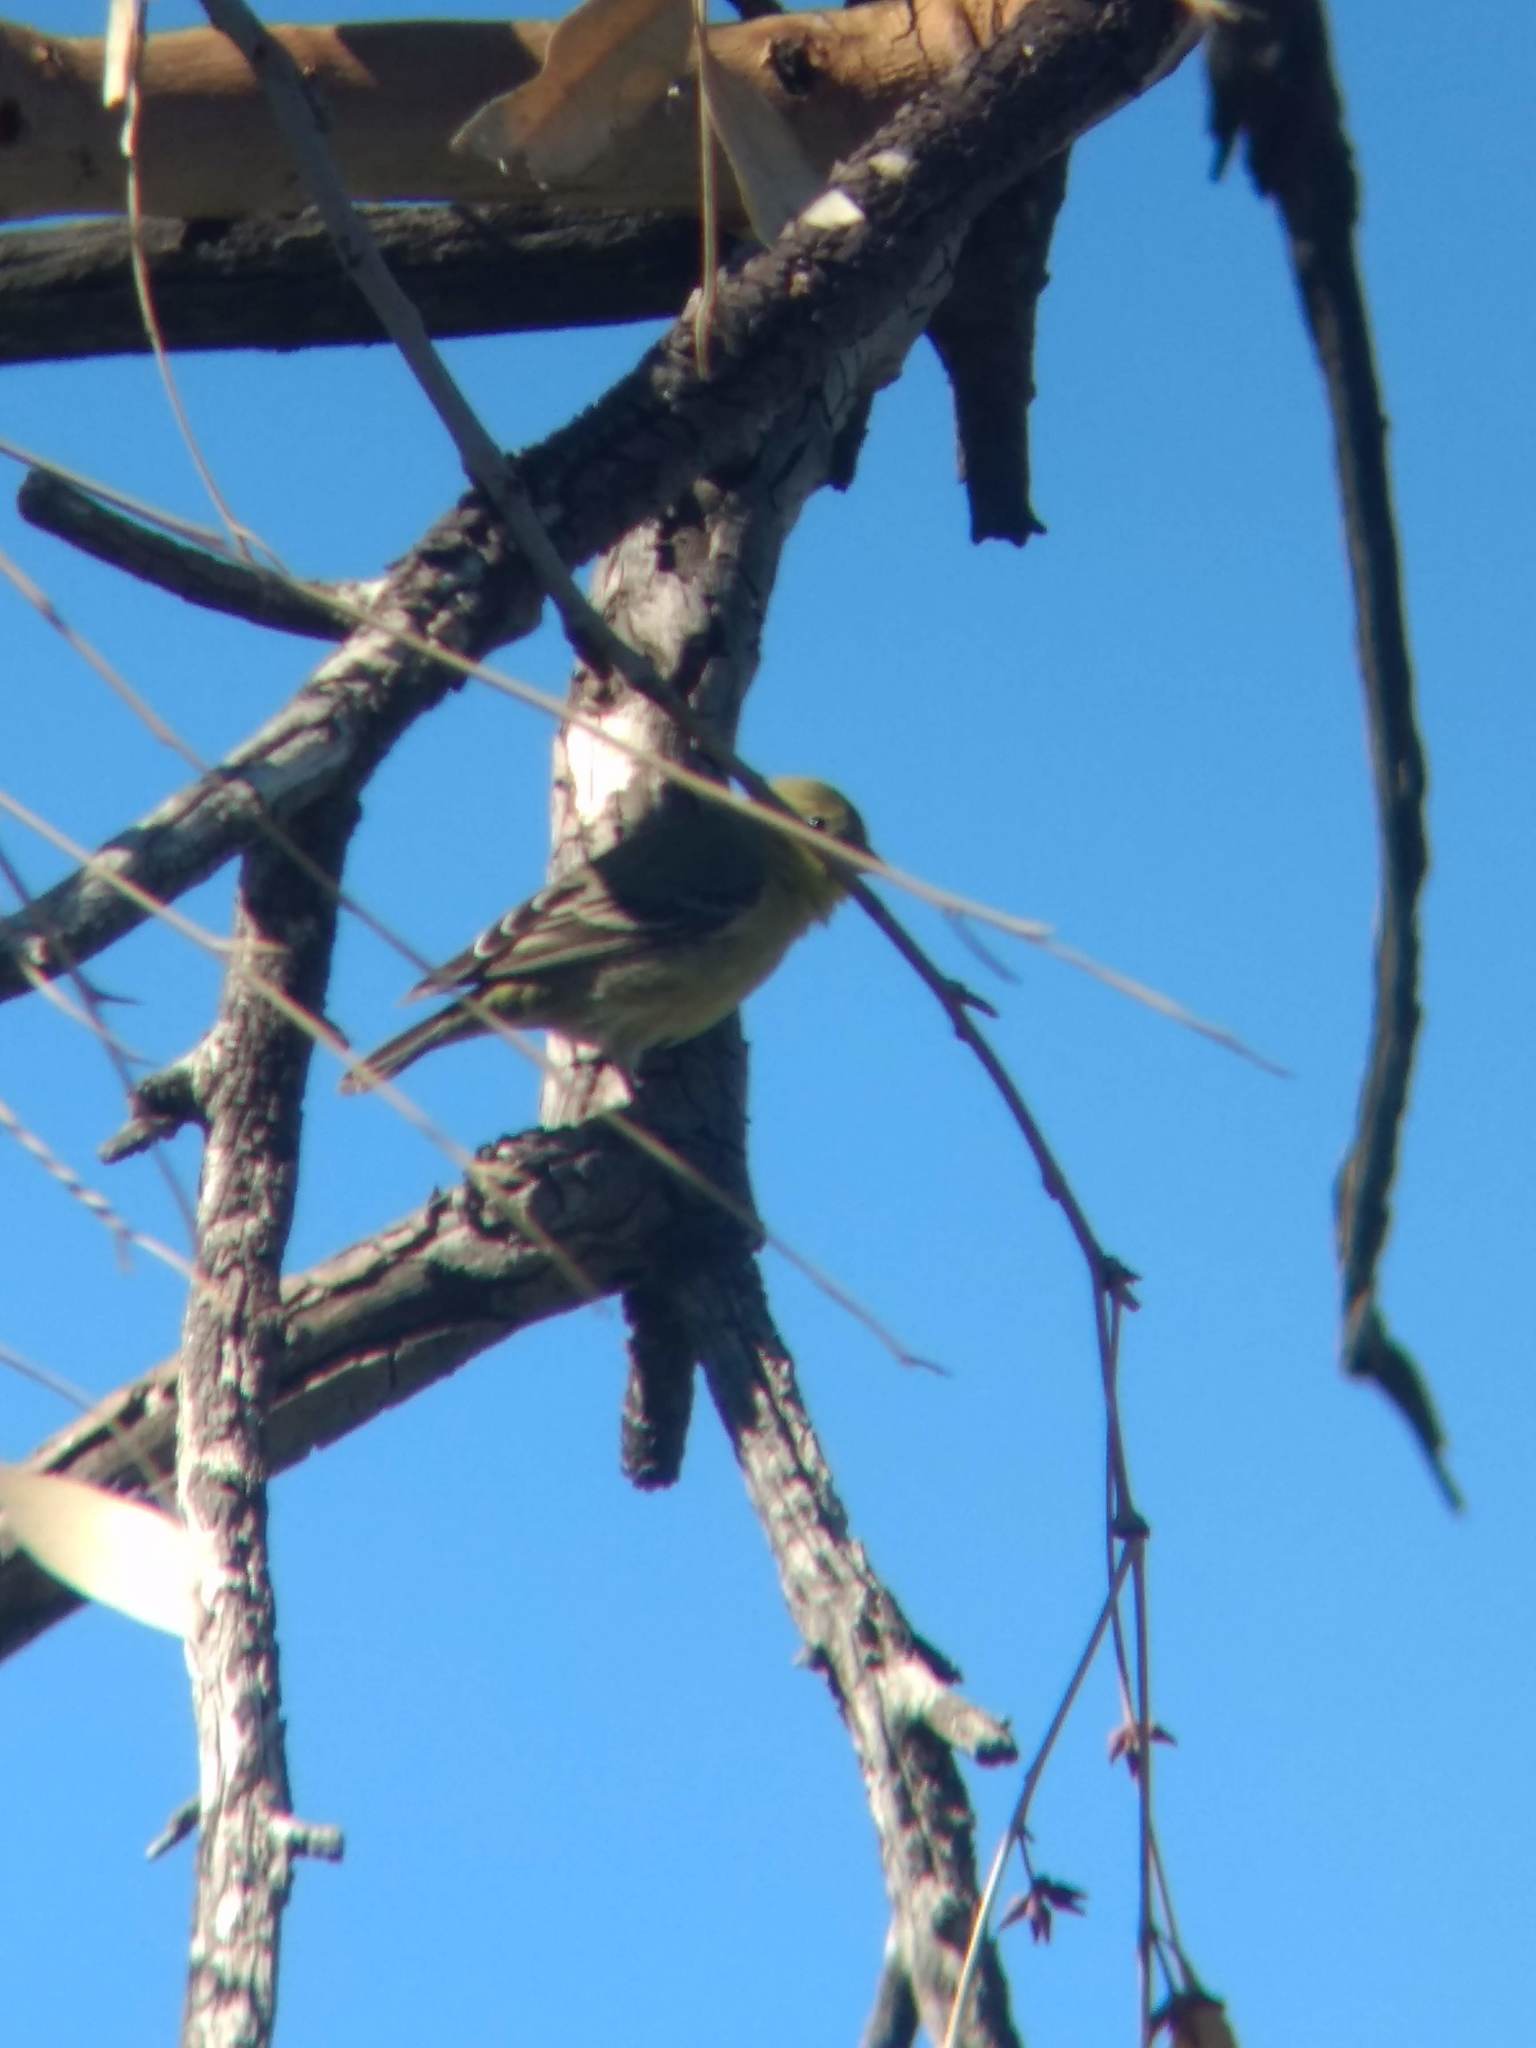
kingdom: Animalia
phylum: Chordata
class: Aves
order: Passeriformes
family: Fringillidae
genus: Spinus
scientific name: Spinus psaltria
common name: Lesser goldfinch
